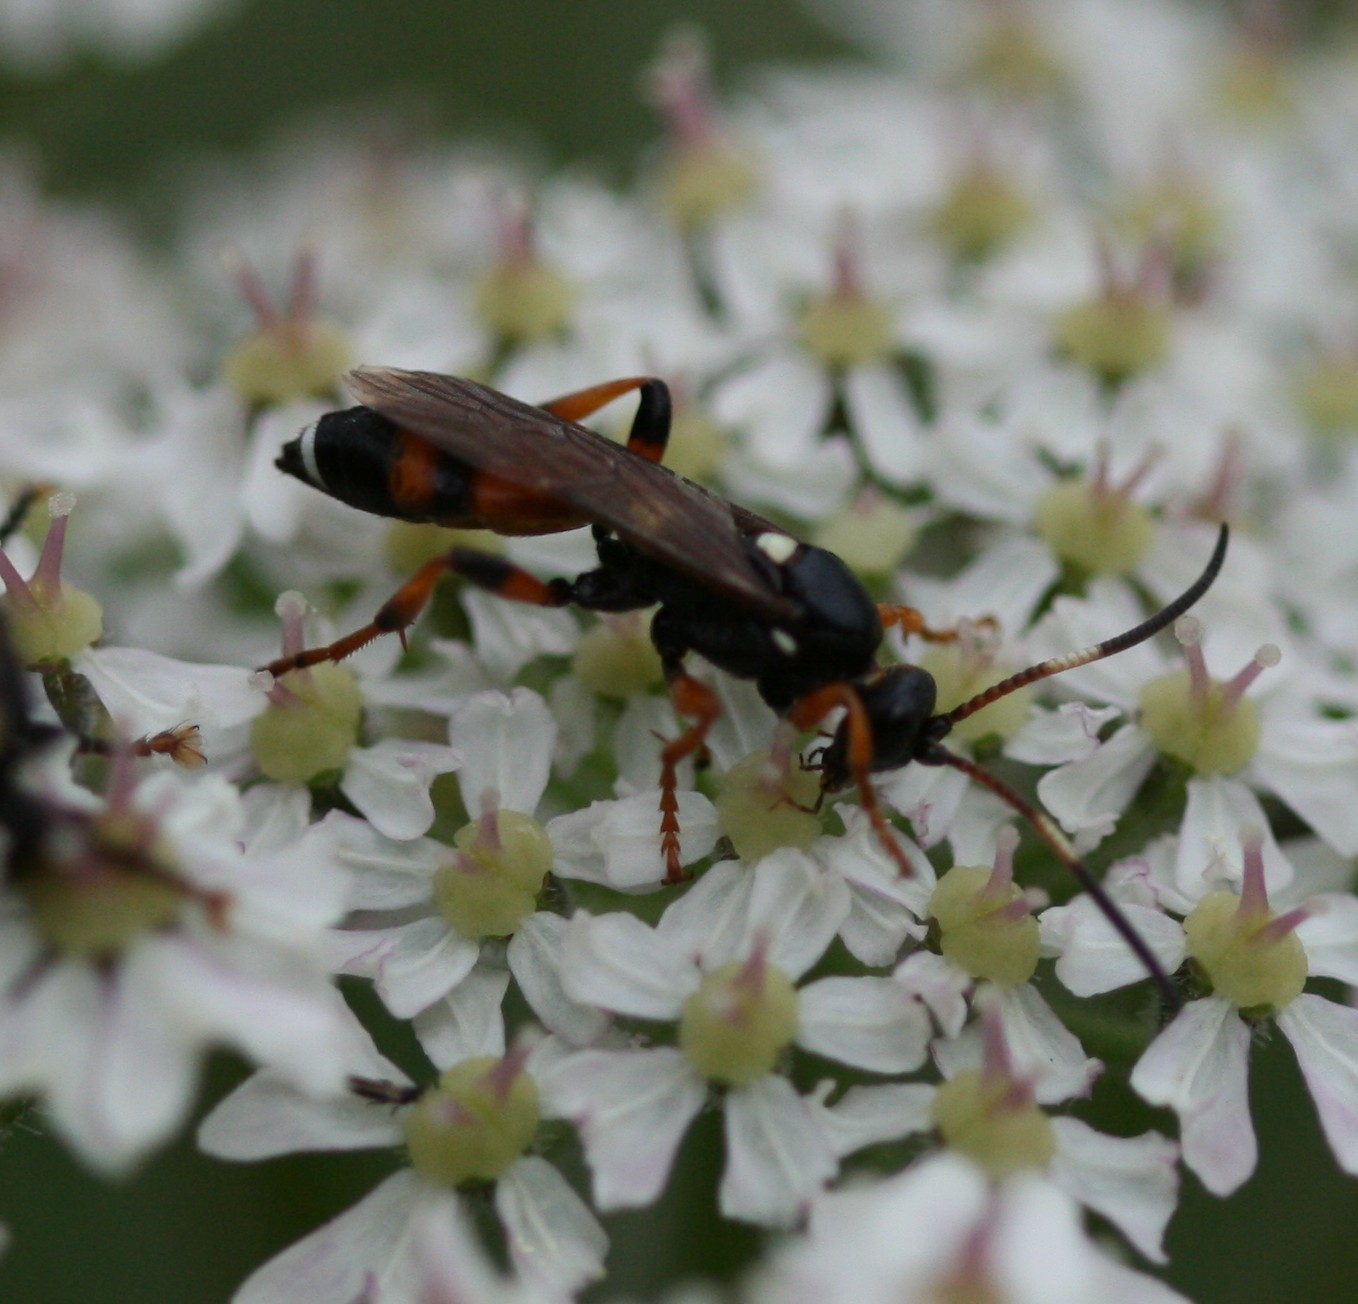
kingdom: Animalia
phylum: Arthropoda
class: Insecta
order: Hymenoptera
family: Ichneumonidae
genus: Ichneumon
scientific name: Ichneumon sarcitorius
